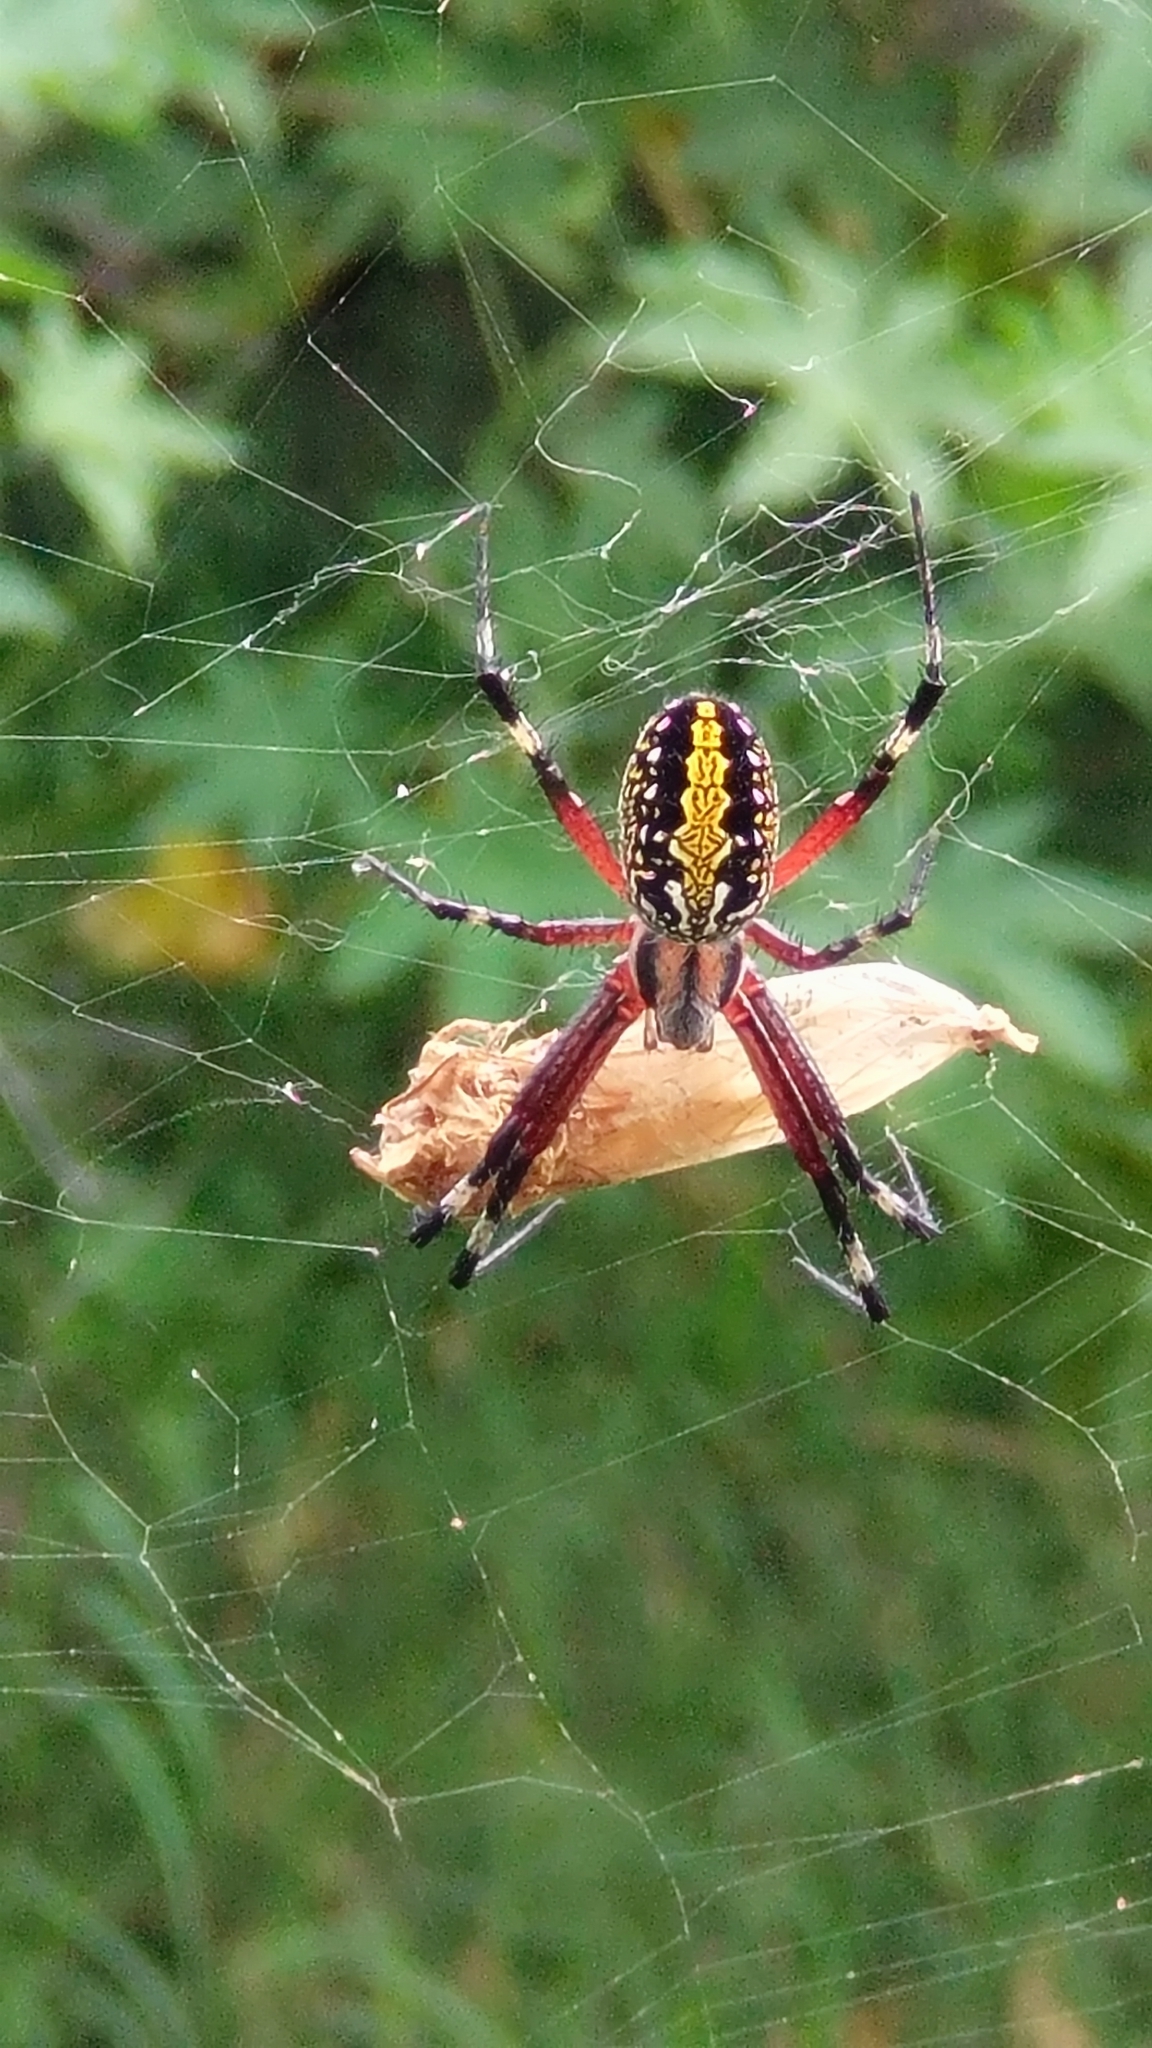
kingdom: Animalia
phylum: Arthropoda
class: Arachnida
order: Araneae
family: Araneidae
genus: Neoscona
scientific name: Neoscona oaxacensis
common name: Orb weavers
